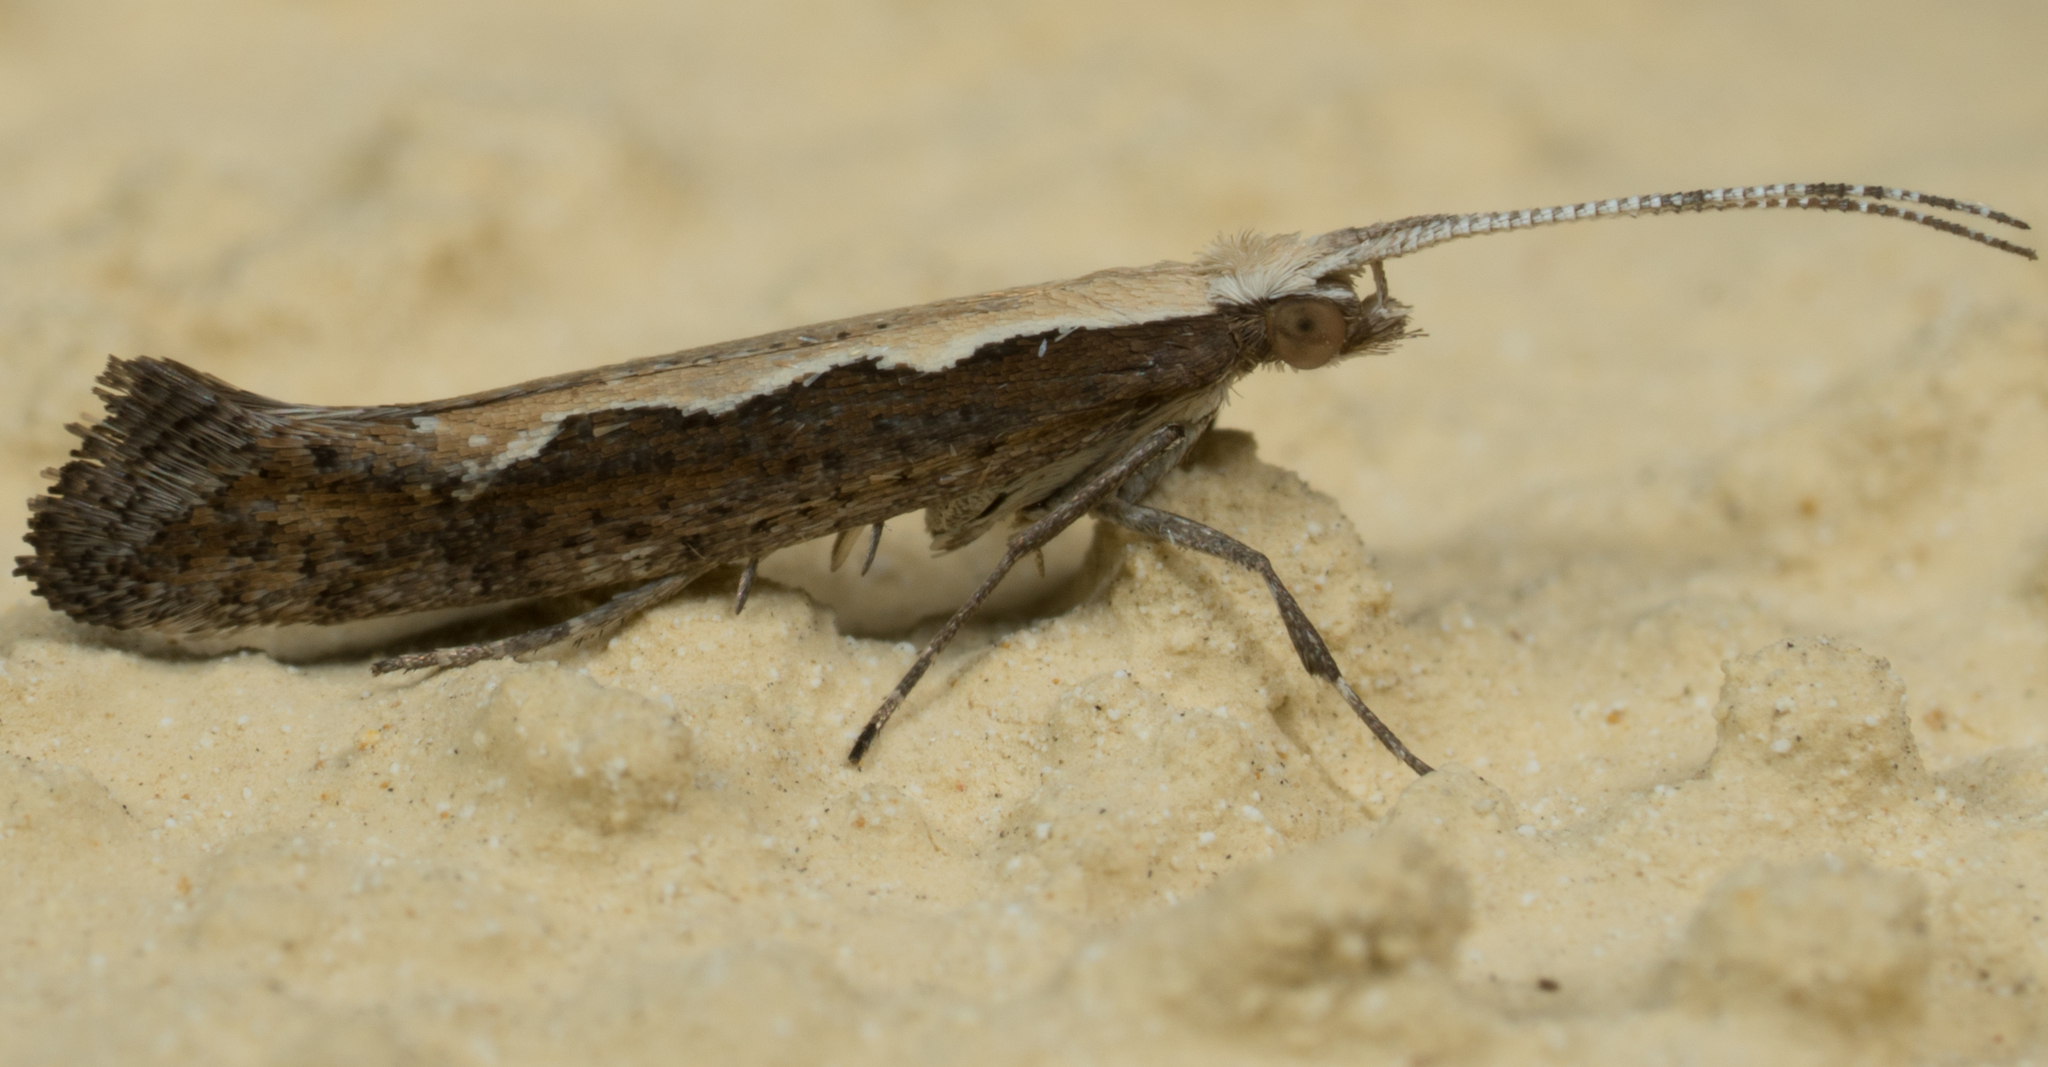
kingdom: Animalia
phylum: Arthropoda
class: Insecta
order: Lepidoptera
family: Plutellidae
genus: Plutella
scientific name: Plutella xylostella
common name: Diamond-back moth
